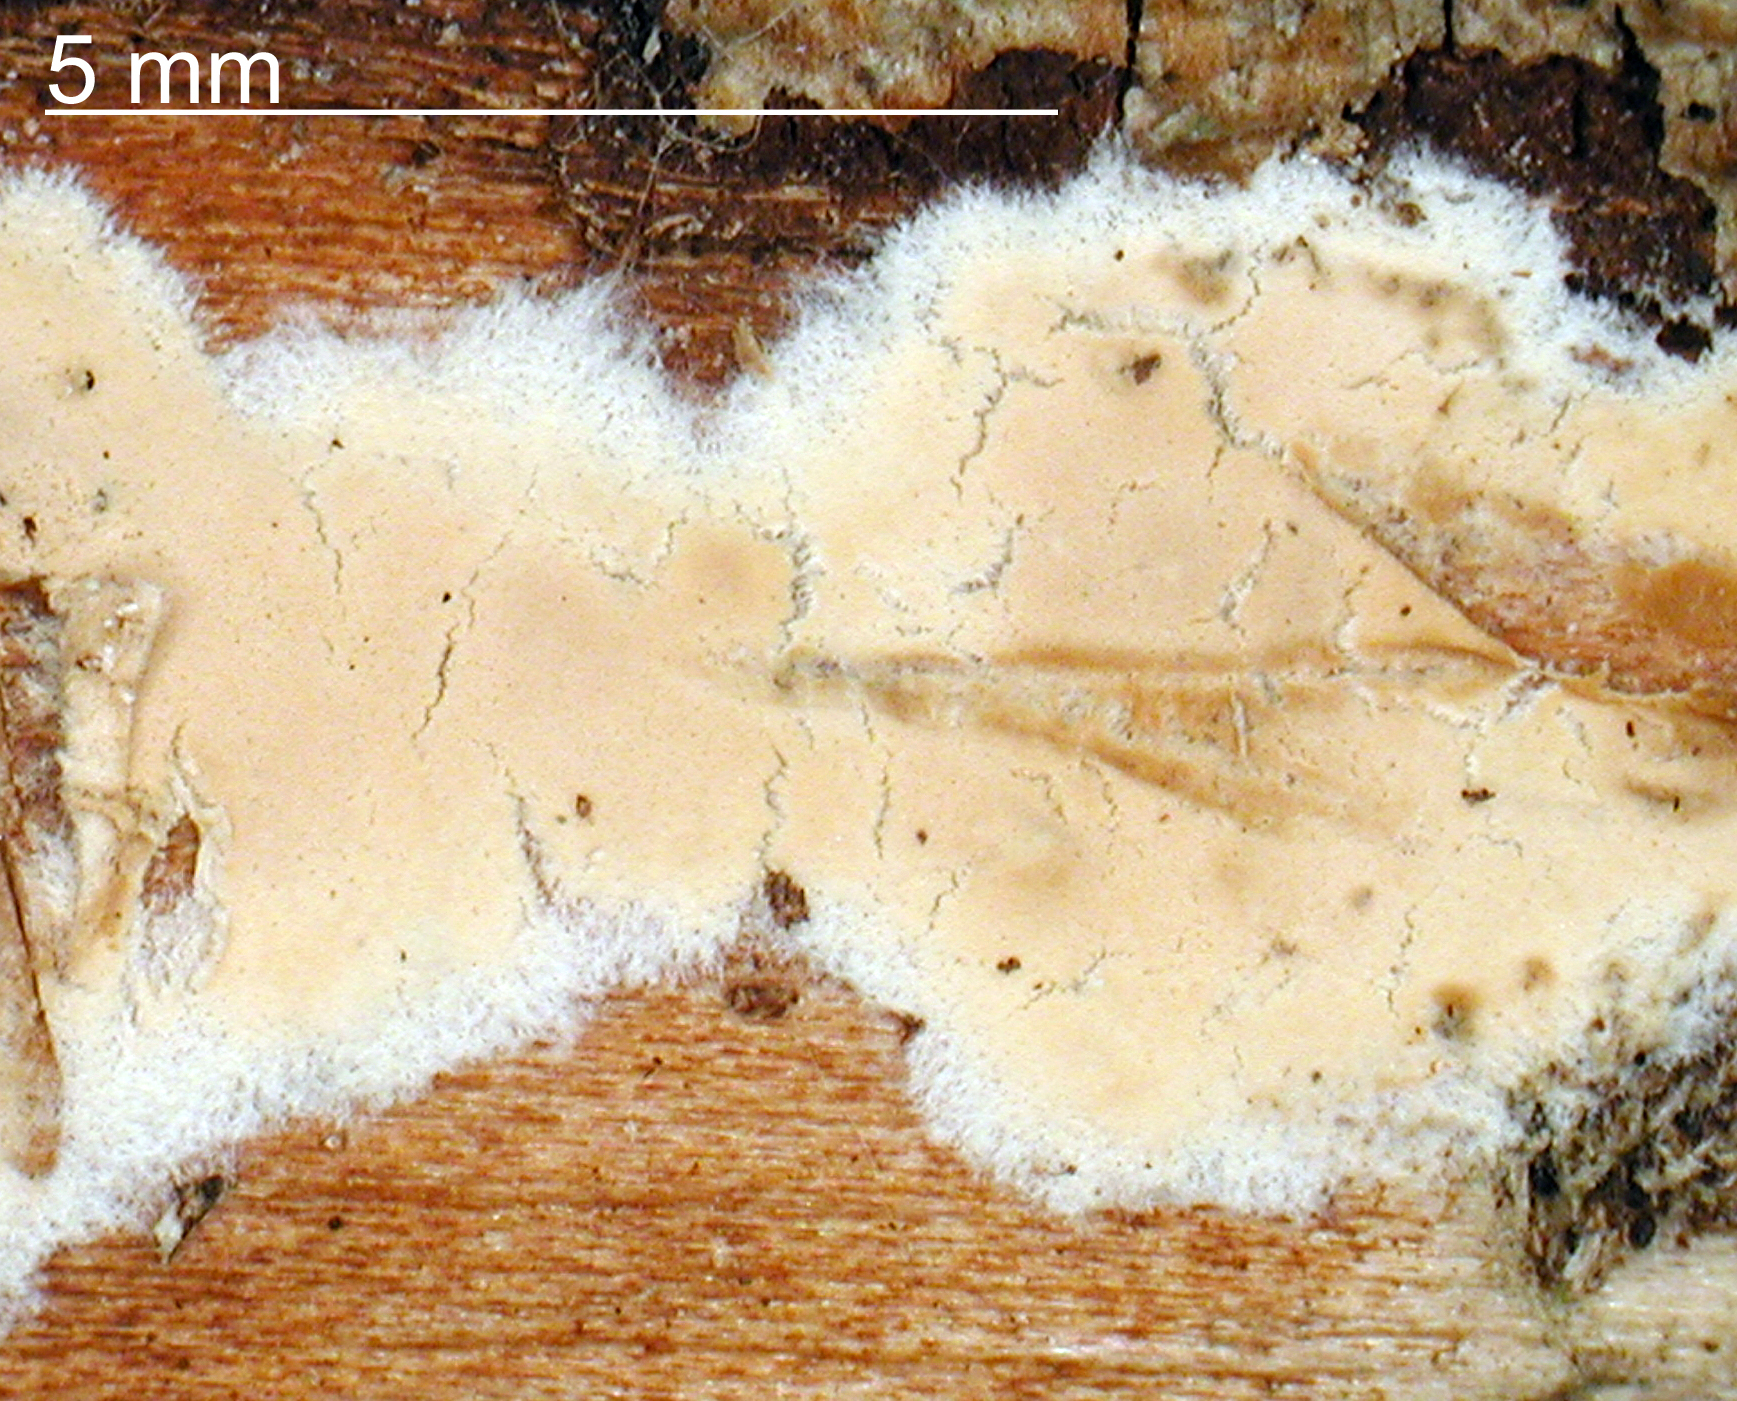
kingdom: Fungi
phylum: Basidiomycota
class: Agaricomycetes
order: Agaricales
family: Physalacriaceae
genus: Cylindrobasidium
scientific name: Cylindrobasidium laeve
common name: Tear dropper
